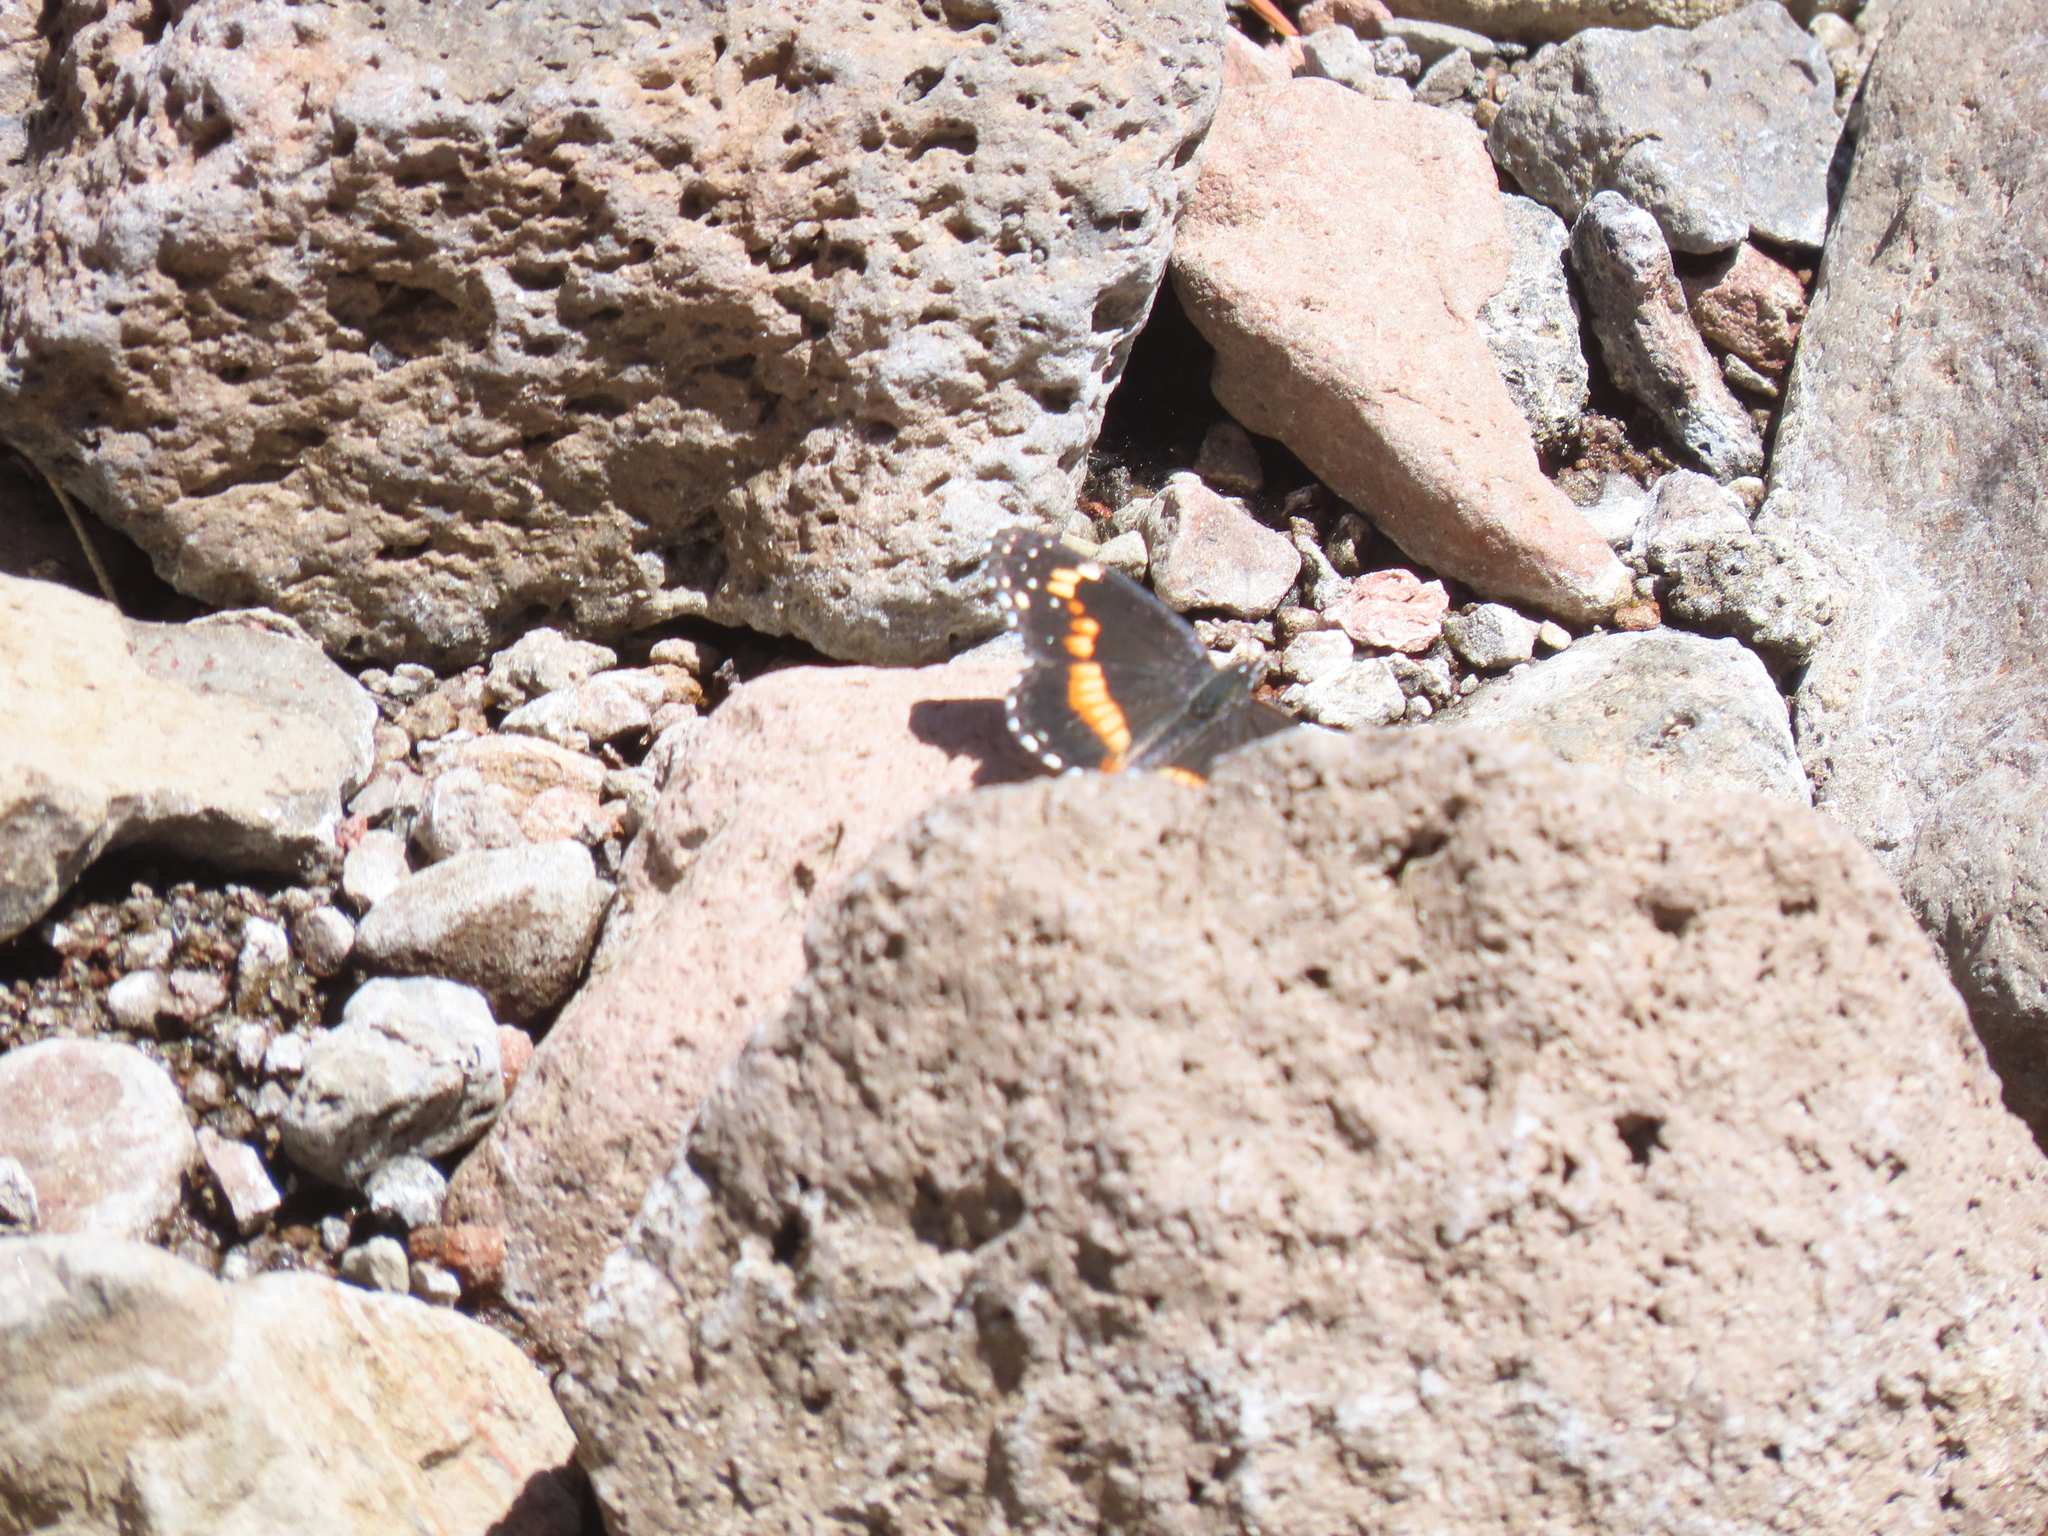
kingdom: Animalia
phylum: Arthropoda
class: Insecta
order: Lepidoptera
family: Nymphalidae
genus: Chlosyne
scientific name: Chlosyne lacinia
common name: Bordered patch
